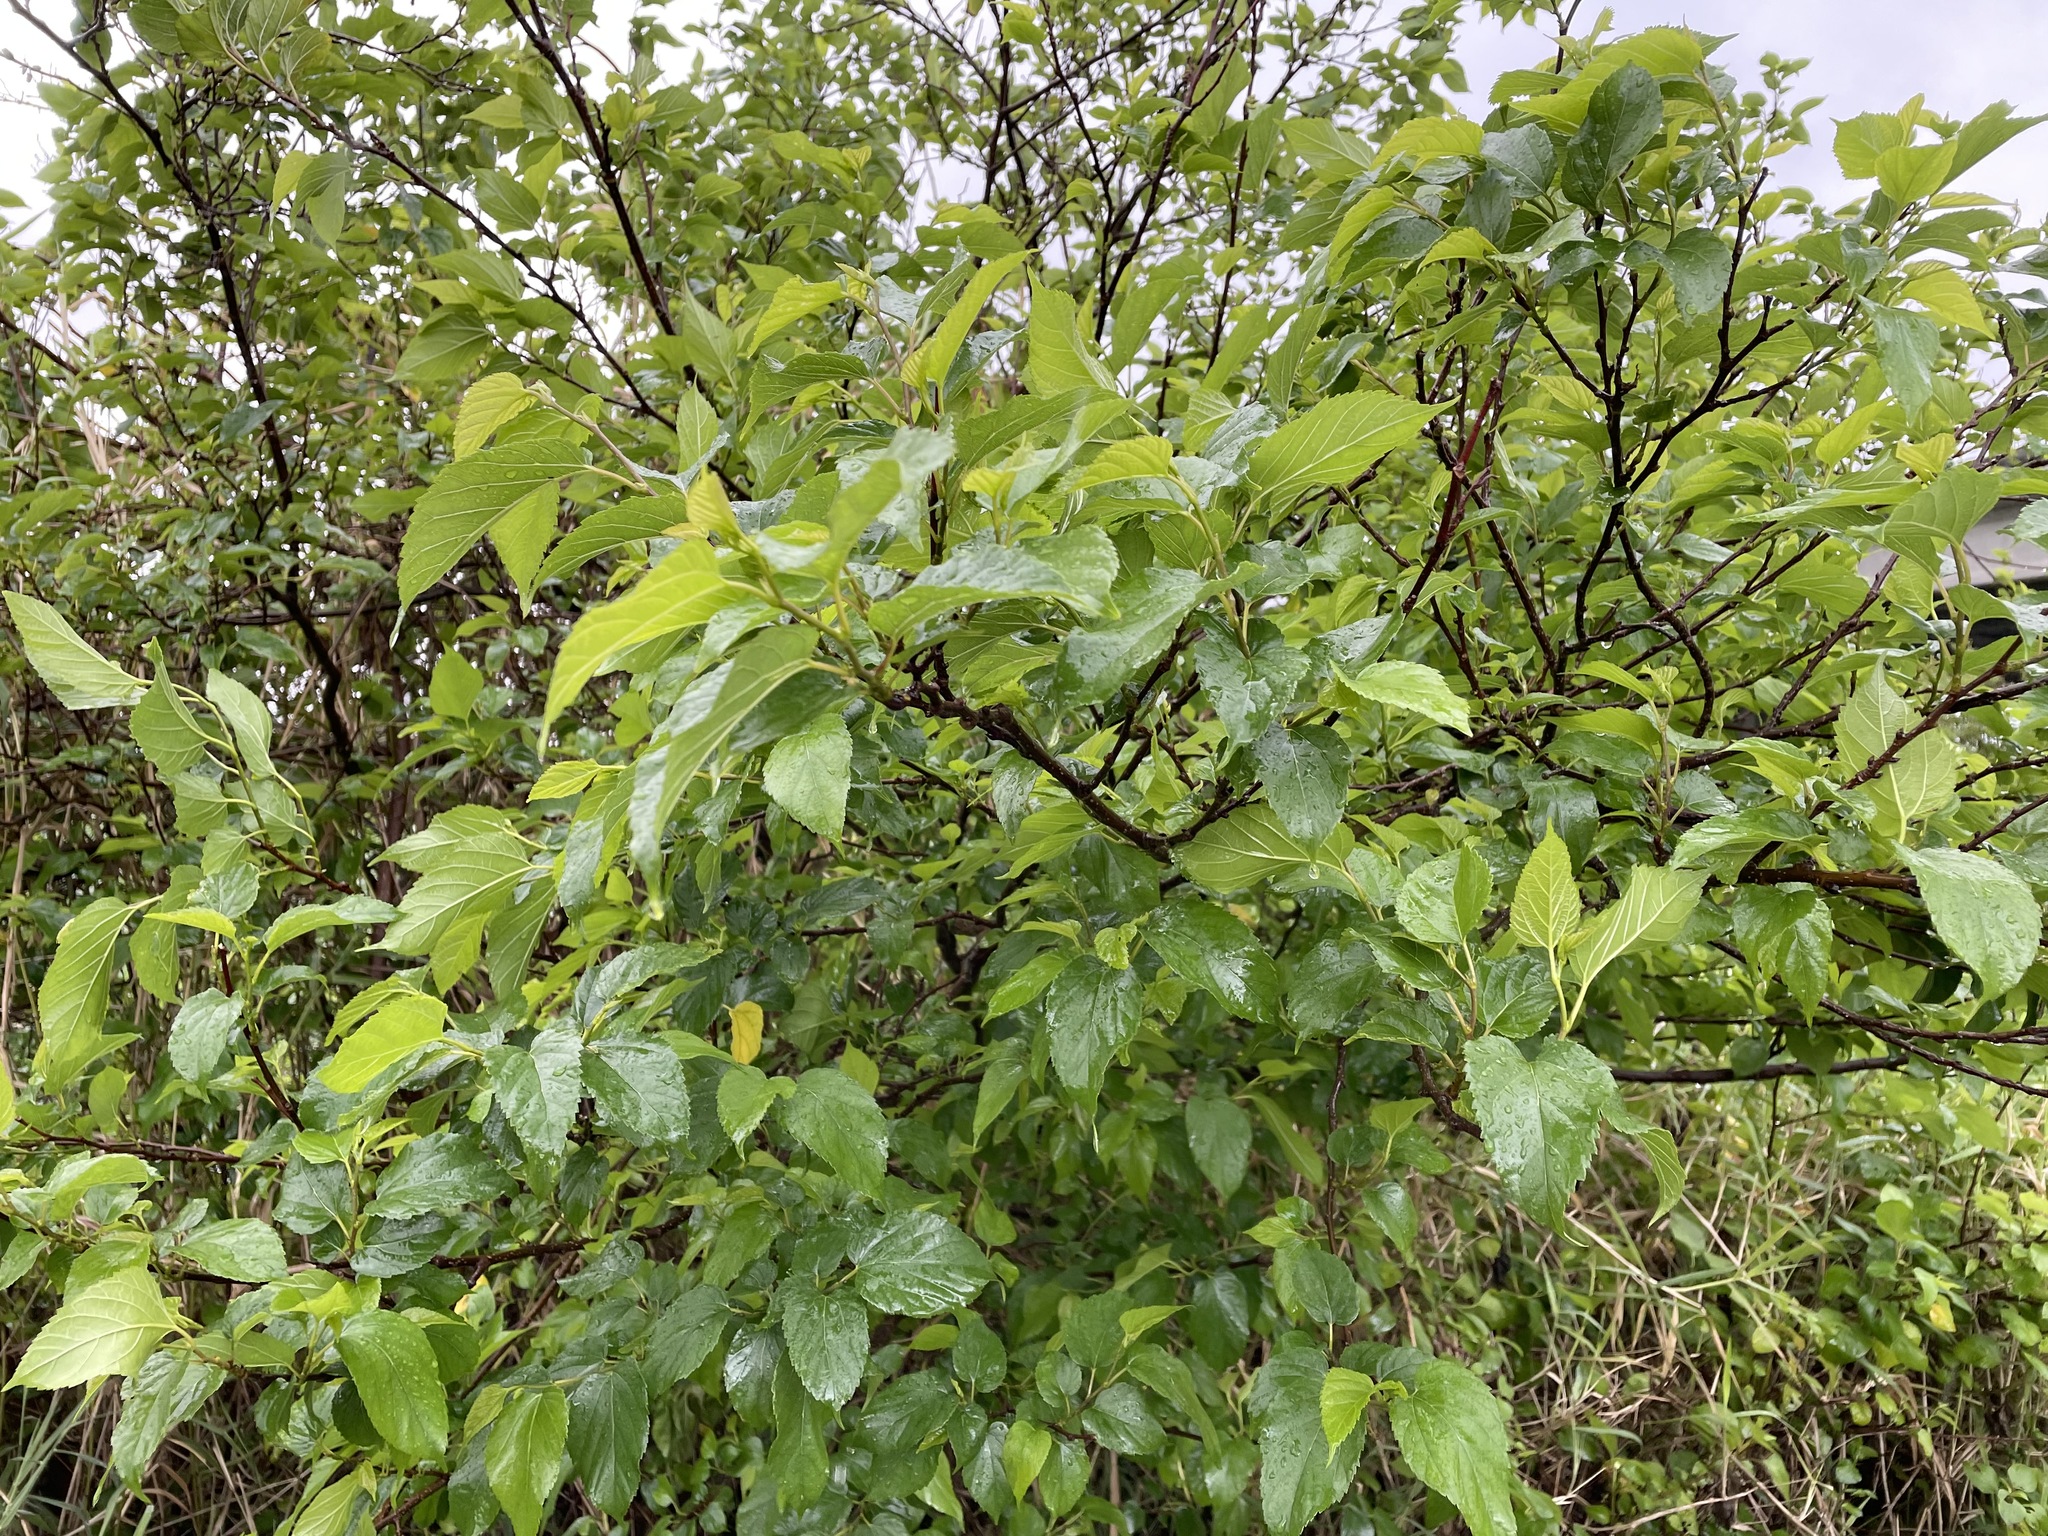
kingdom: Plantae
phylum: Tracheophyta
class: Magnoliopsida
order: Rosales
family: Moraceae
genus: Morus
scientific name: Morus indica
